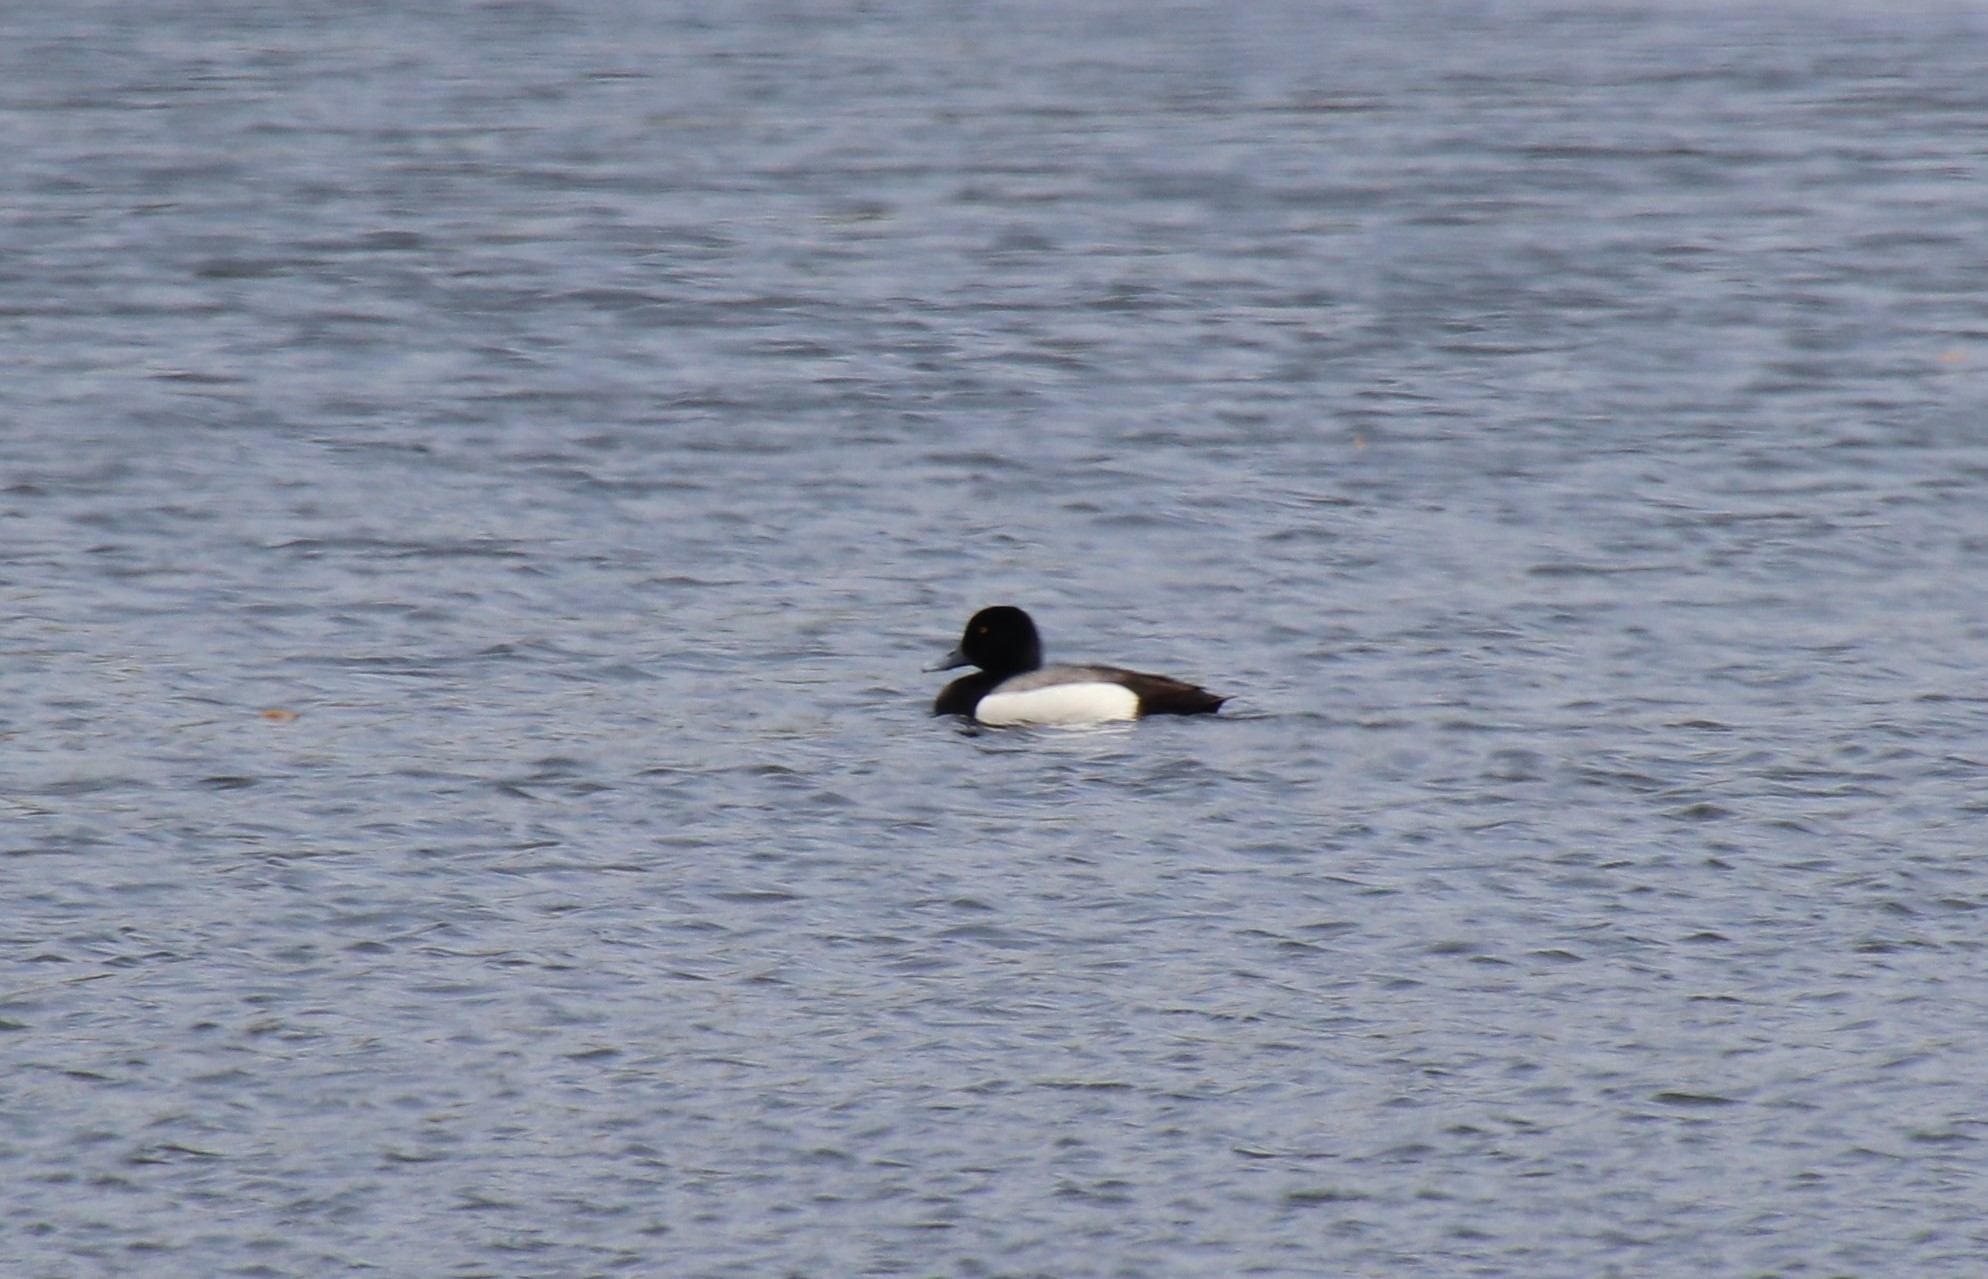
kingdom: Animalia
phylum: Chordata
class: Aves
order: Anseriformes
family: Anatidae
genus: Aythya
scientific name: Aythya marila
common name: Greater scaup
